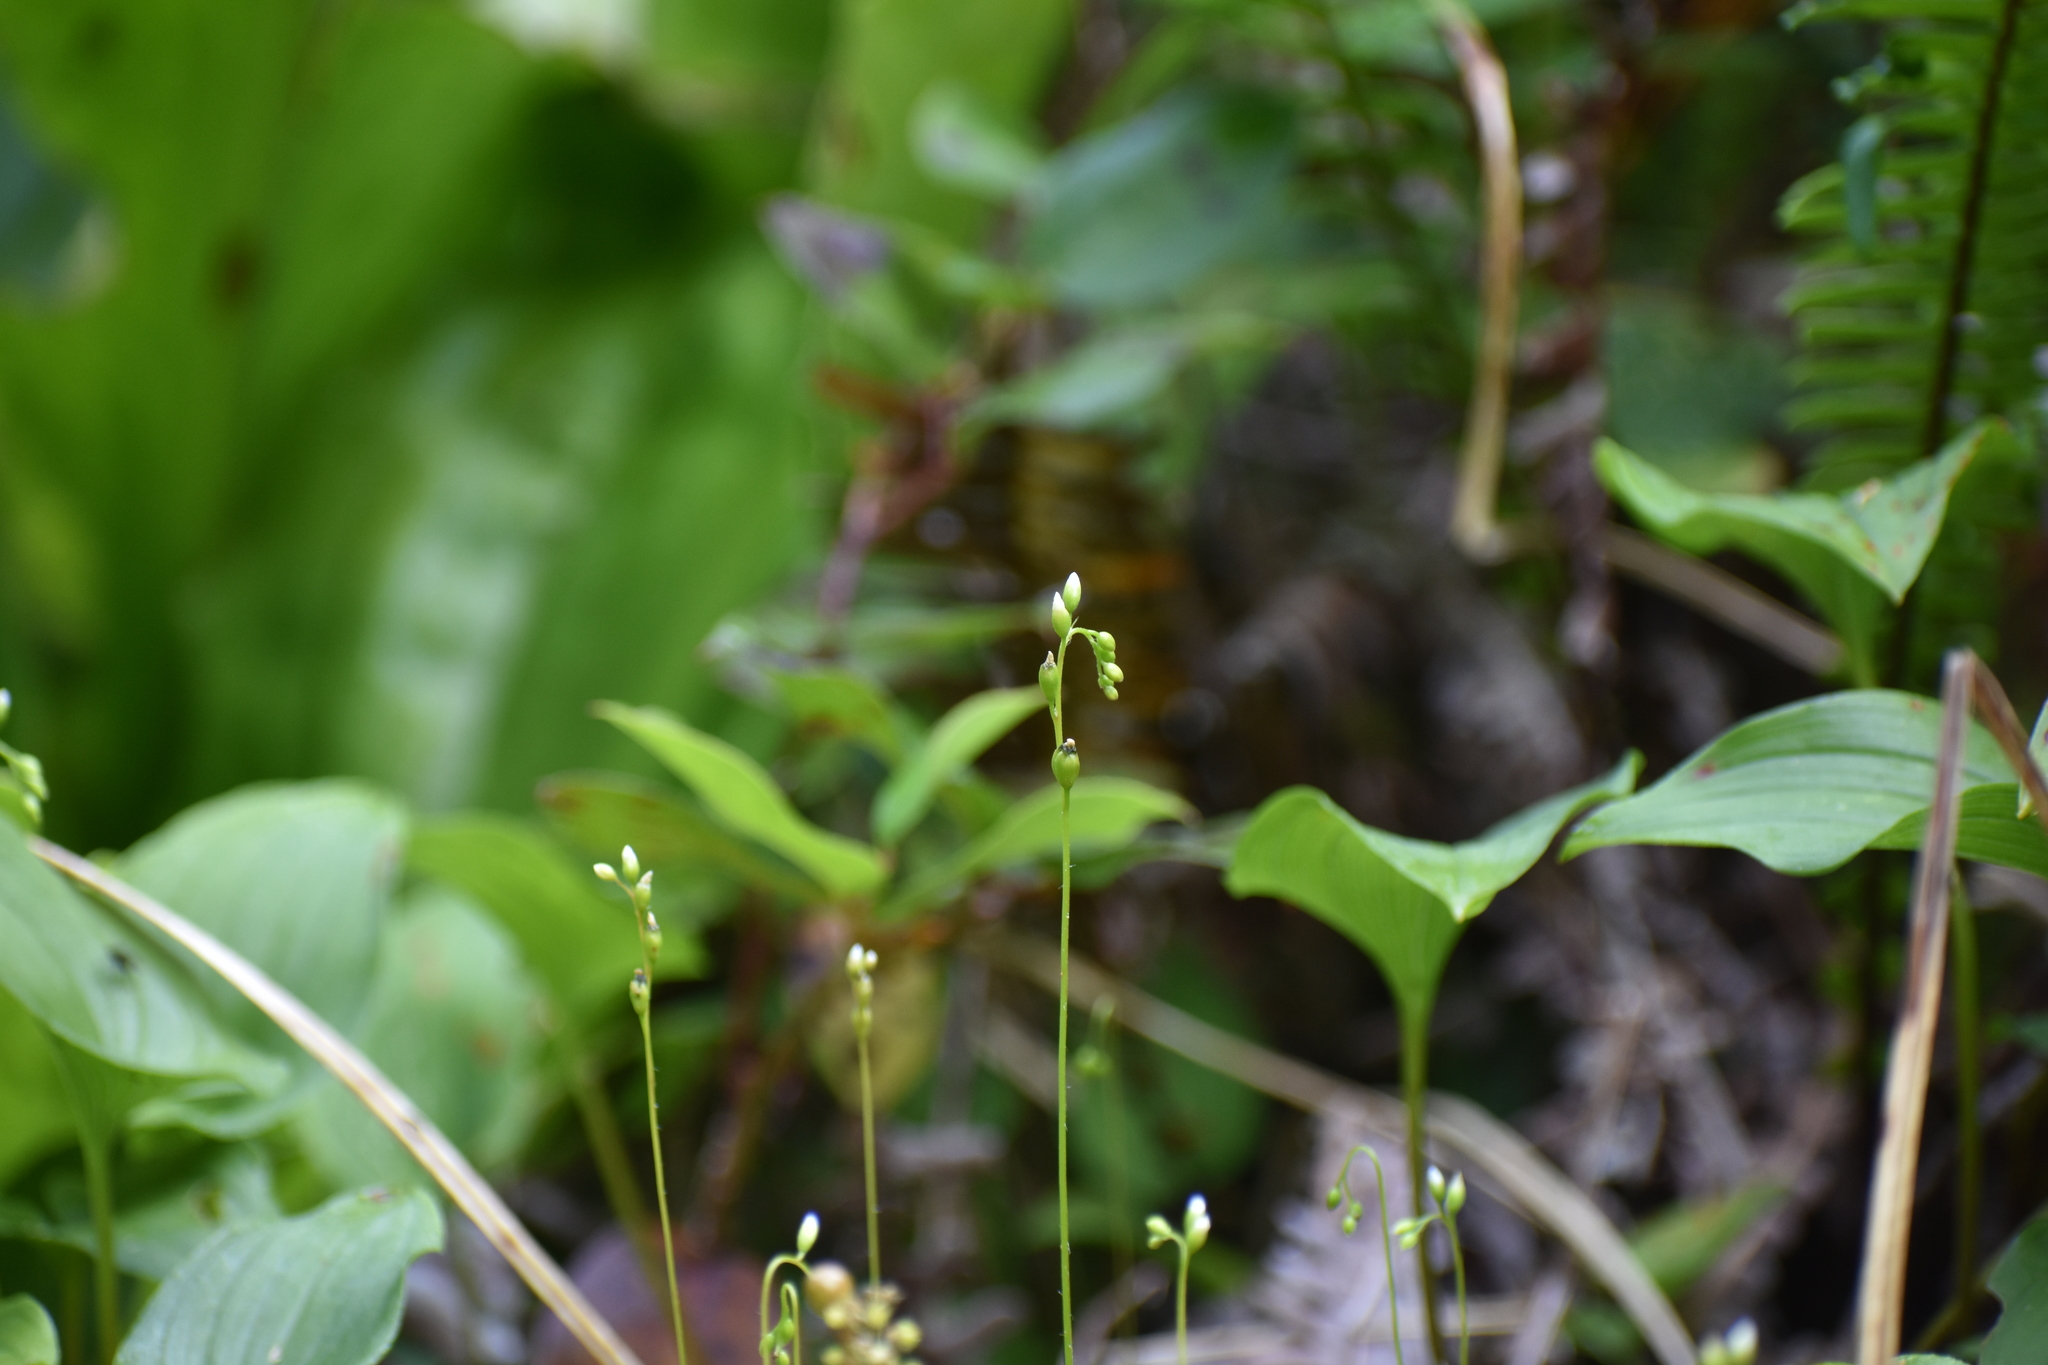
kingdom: Plantae
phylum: Tracheophyta
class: Magnoliopsida
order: Caryophyllales
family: Droseraceae
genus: Drosera
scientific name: Drosera rotundifolia
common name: Round-leaved sundew
